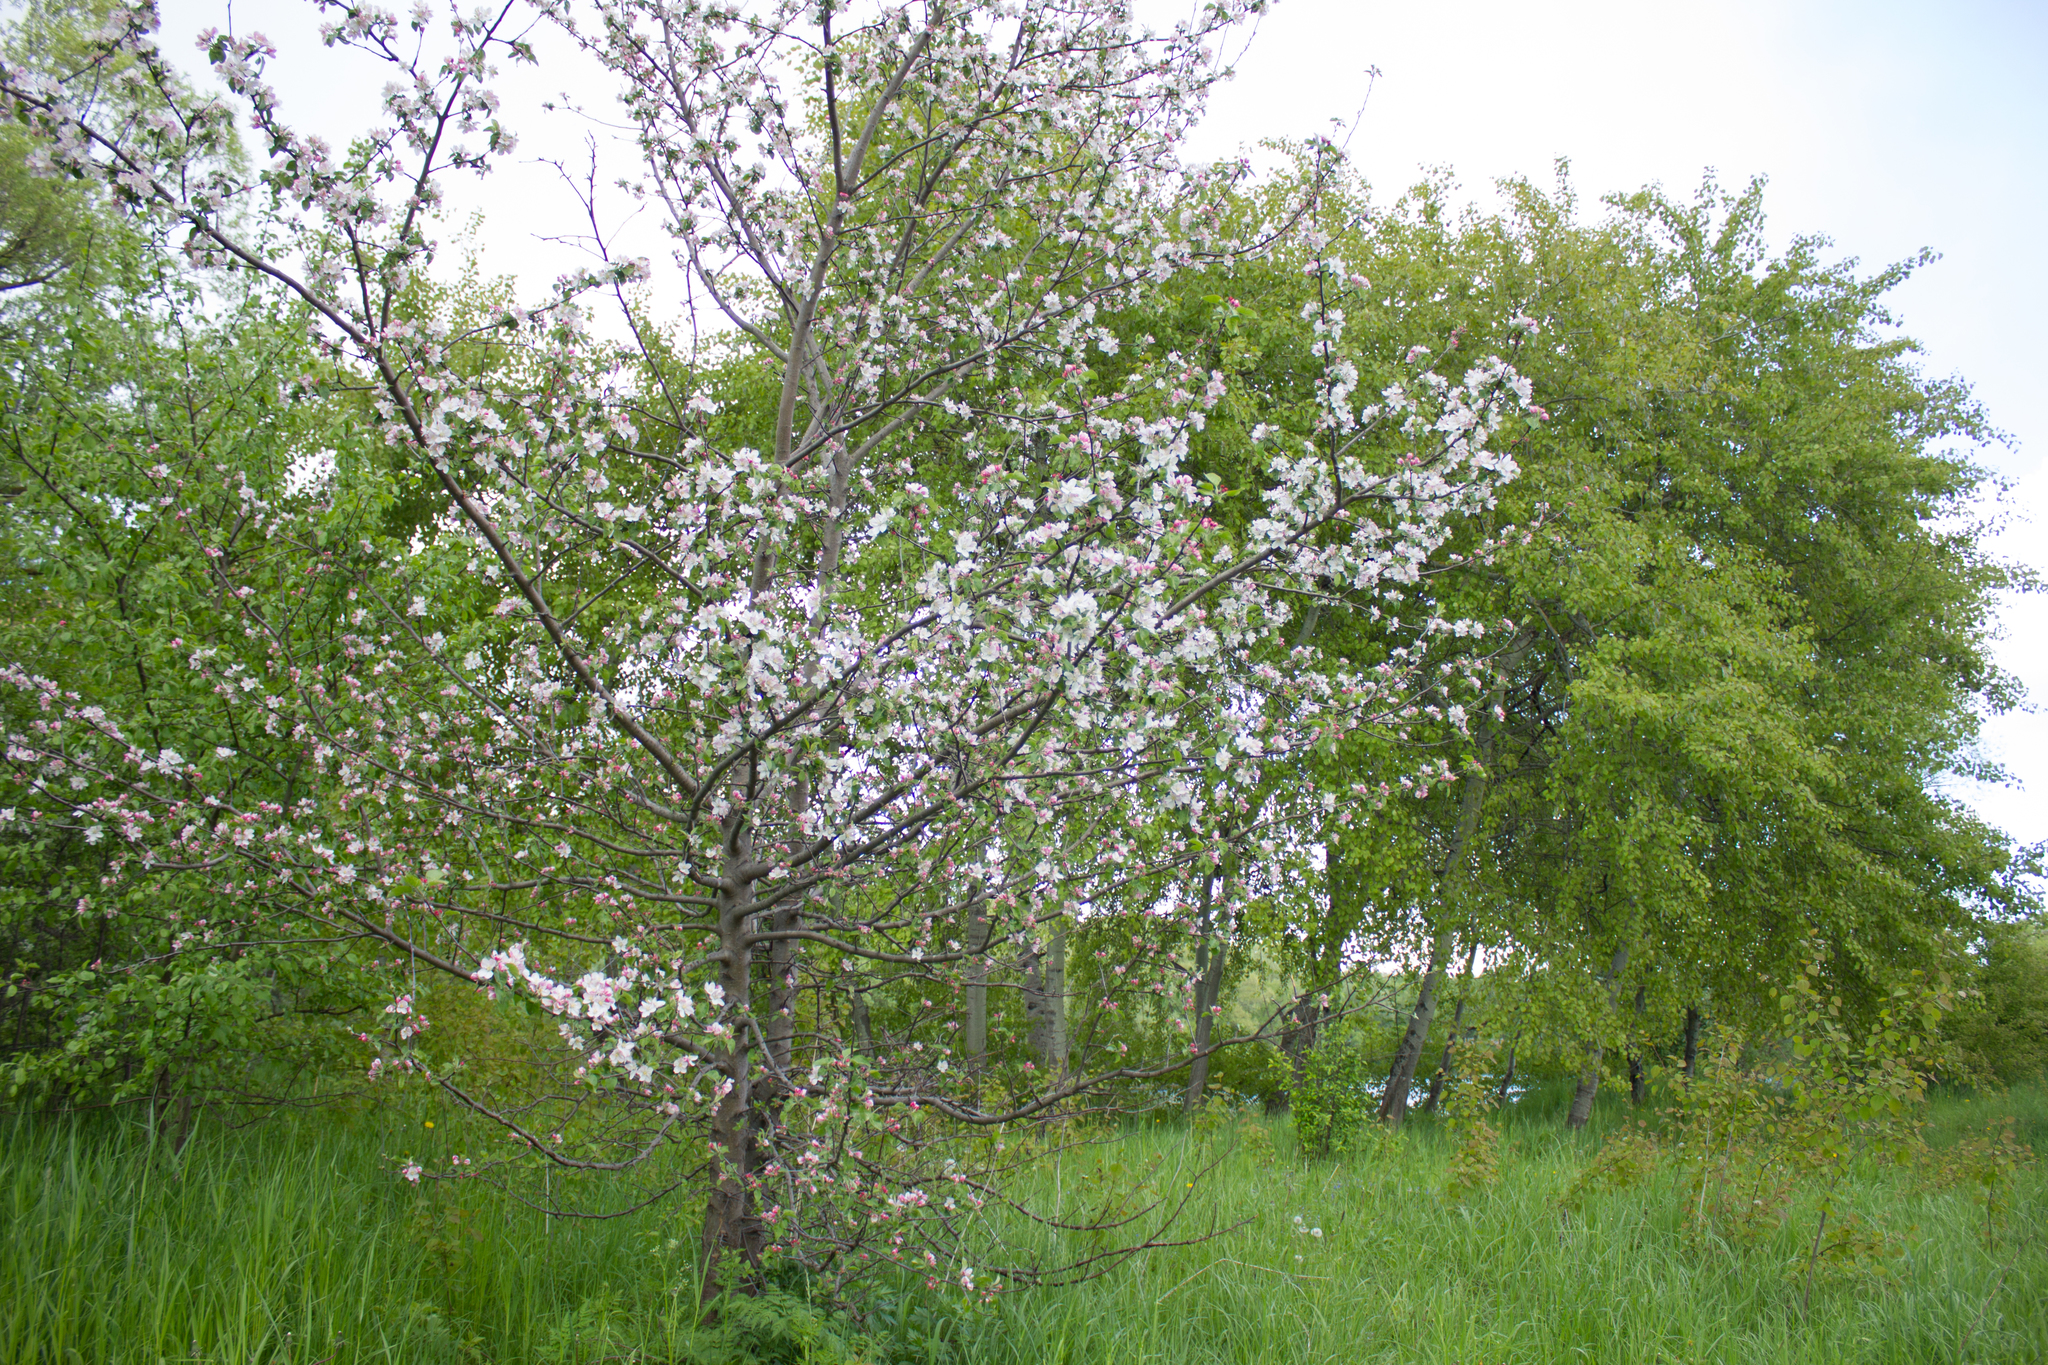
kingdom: Plantae
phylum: Tracheophyta
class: Magnoliopsida
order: Rosales
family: Rosaceae
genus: Malus
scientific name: Malus domestica
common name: Apple
